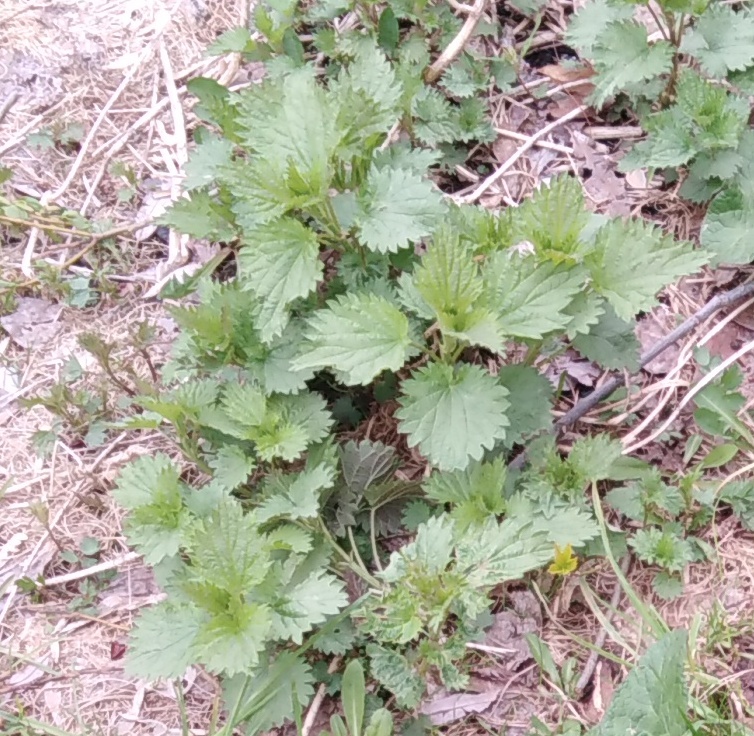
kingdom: Plantae
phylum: Tracheophyta
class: Magnoliopsida
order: Rosales
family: Urticaceae
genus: Urtica
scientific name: Urtica dioica
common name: Common nettle
